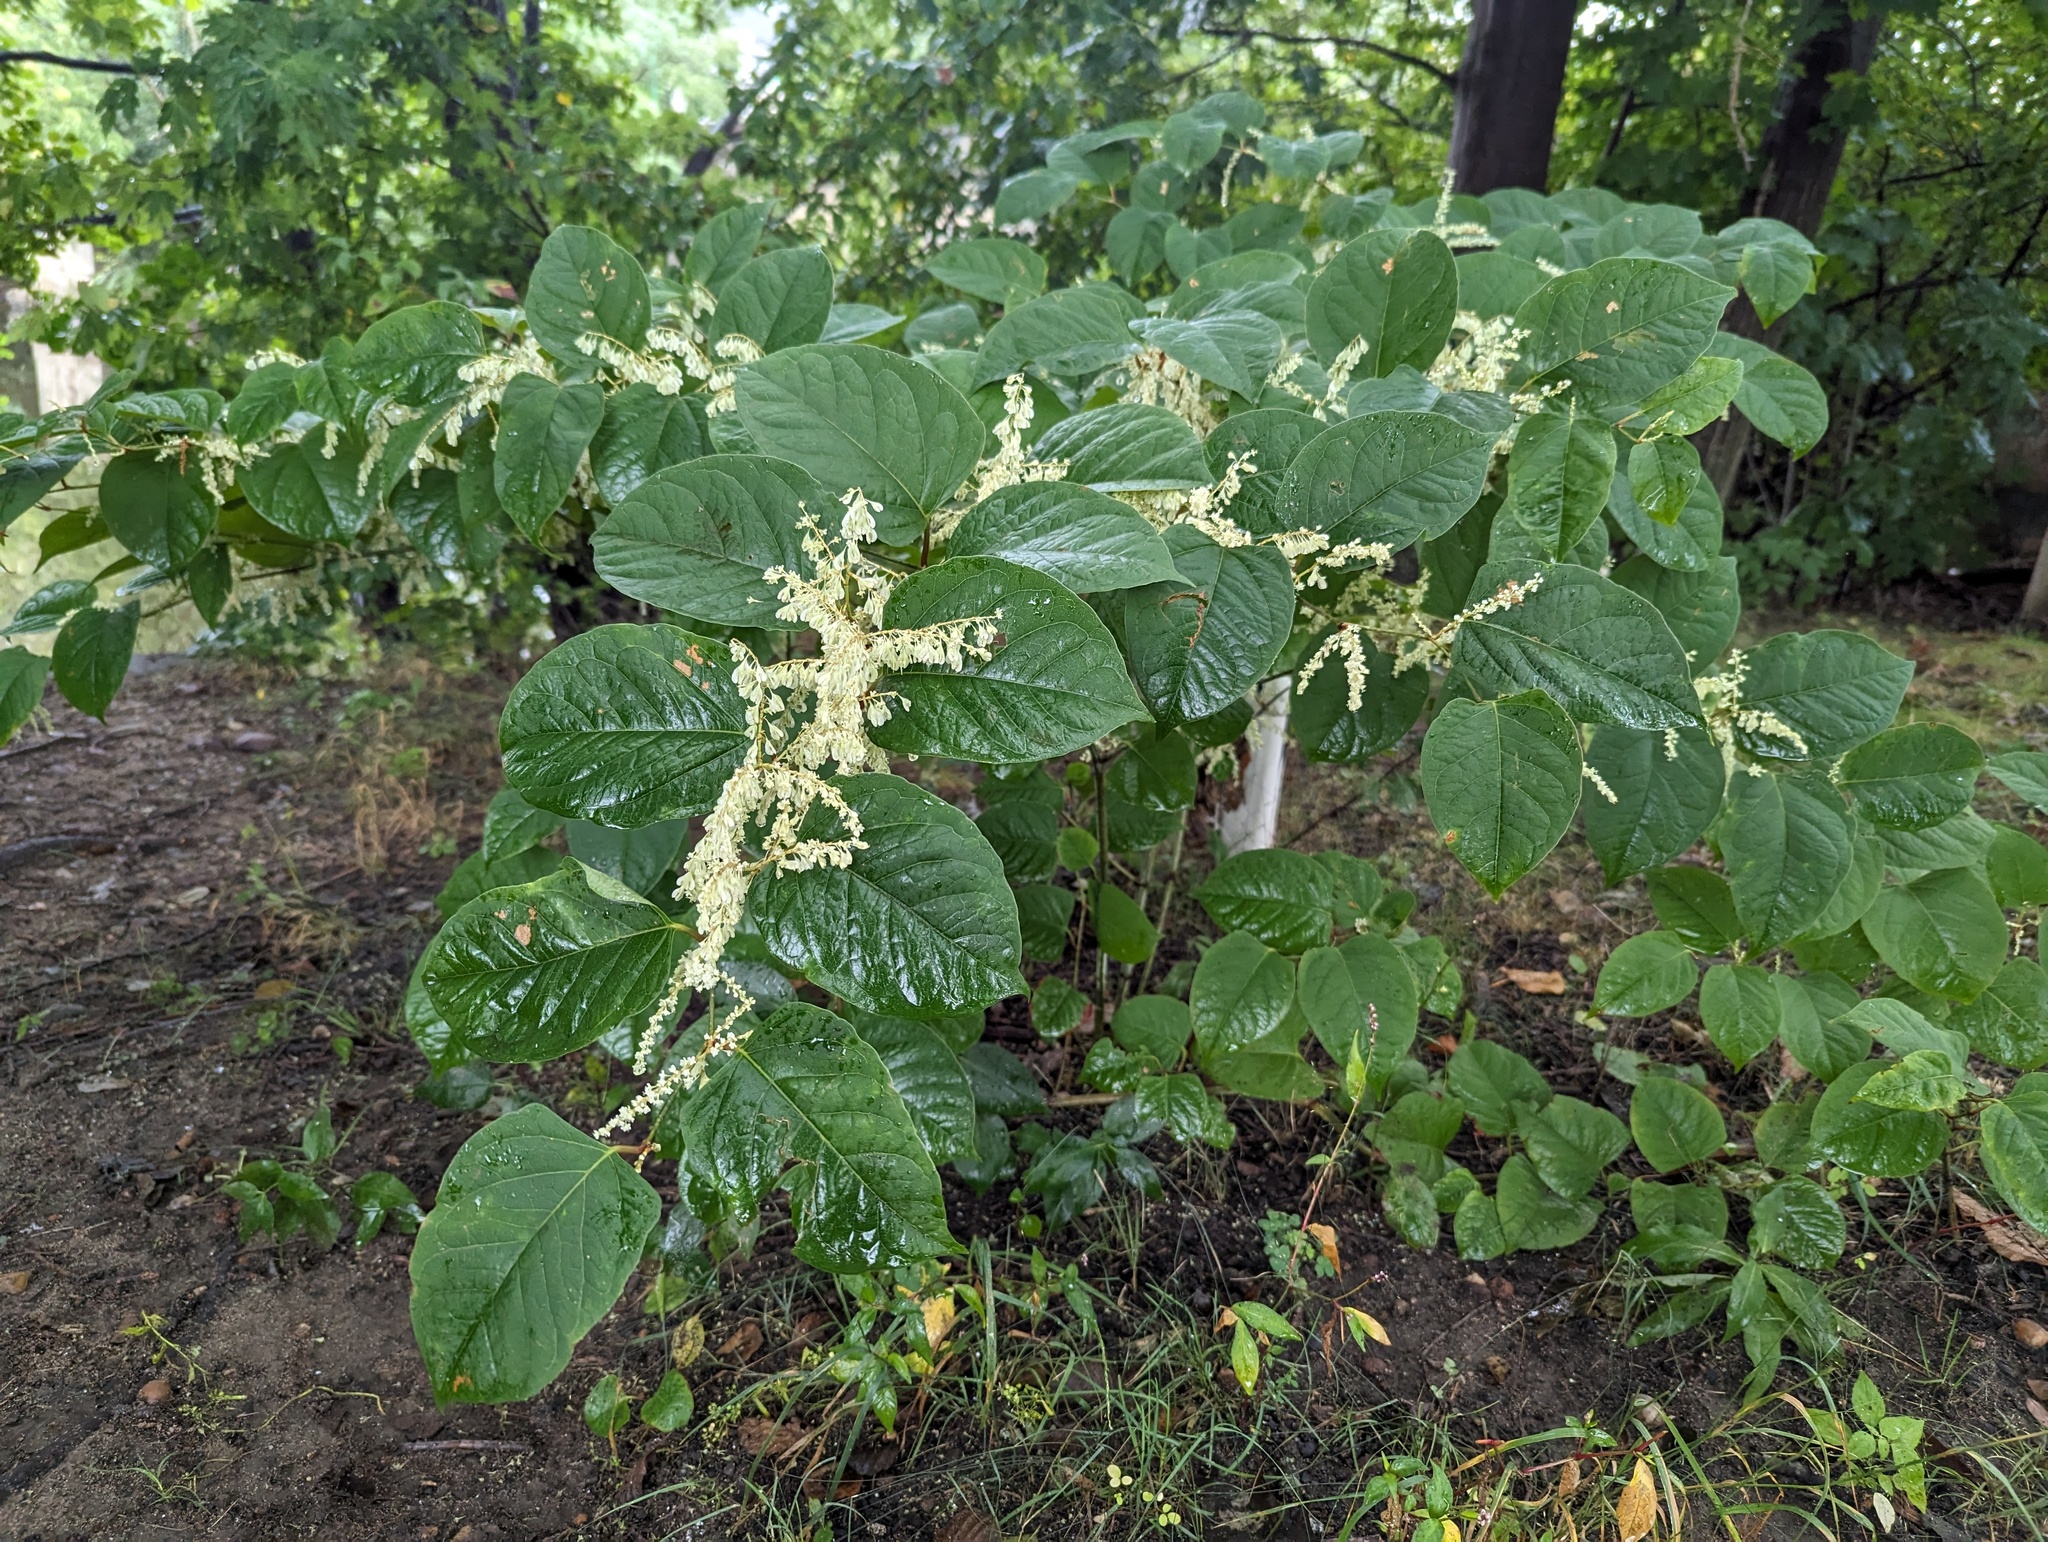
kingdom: Plantae
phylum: Tracheophyta
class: Magnoliopsida
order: Caryophyllales
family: Polygonaceae
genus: Reynoutria
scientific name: Reynoutria japonica
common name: Japanese knotweed
